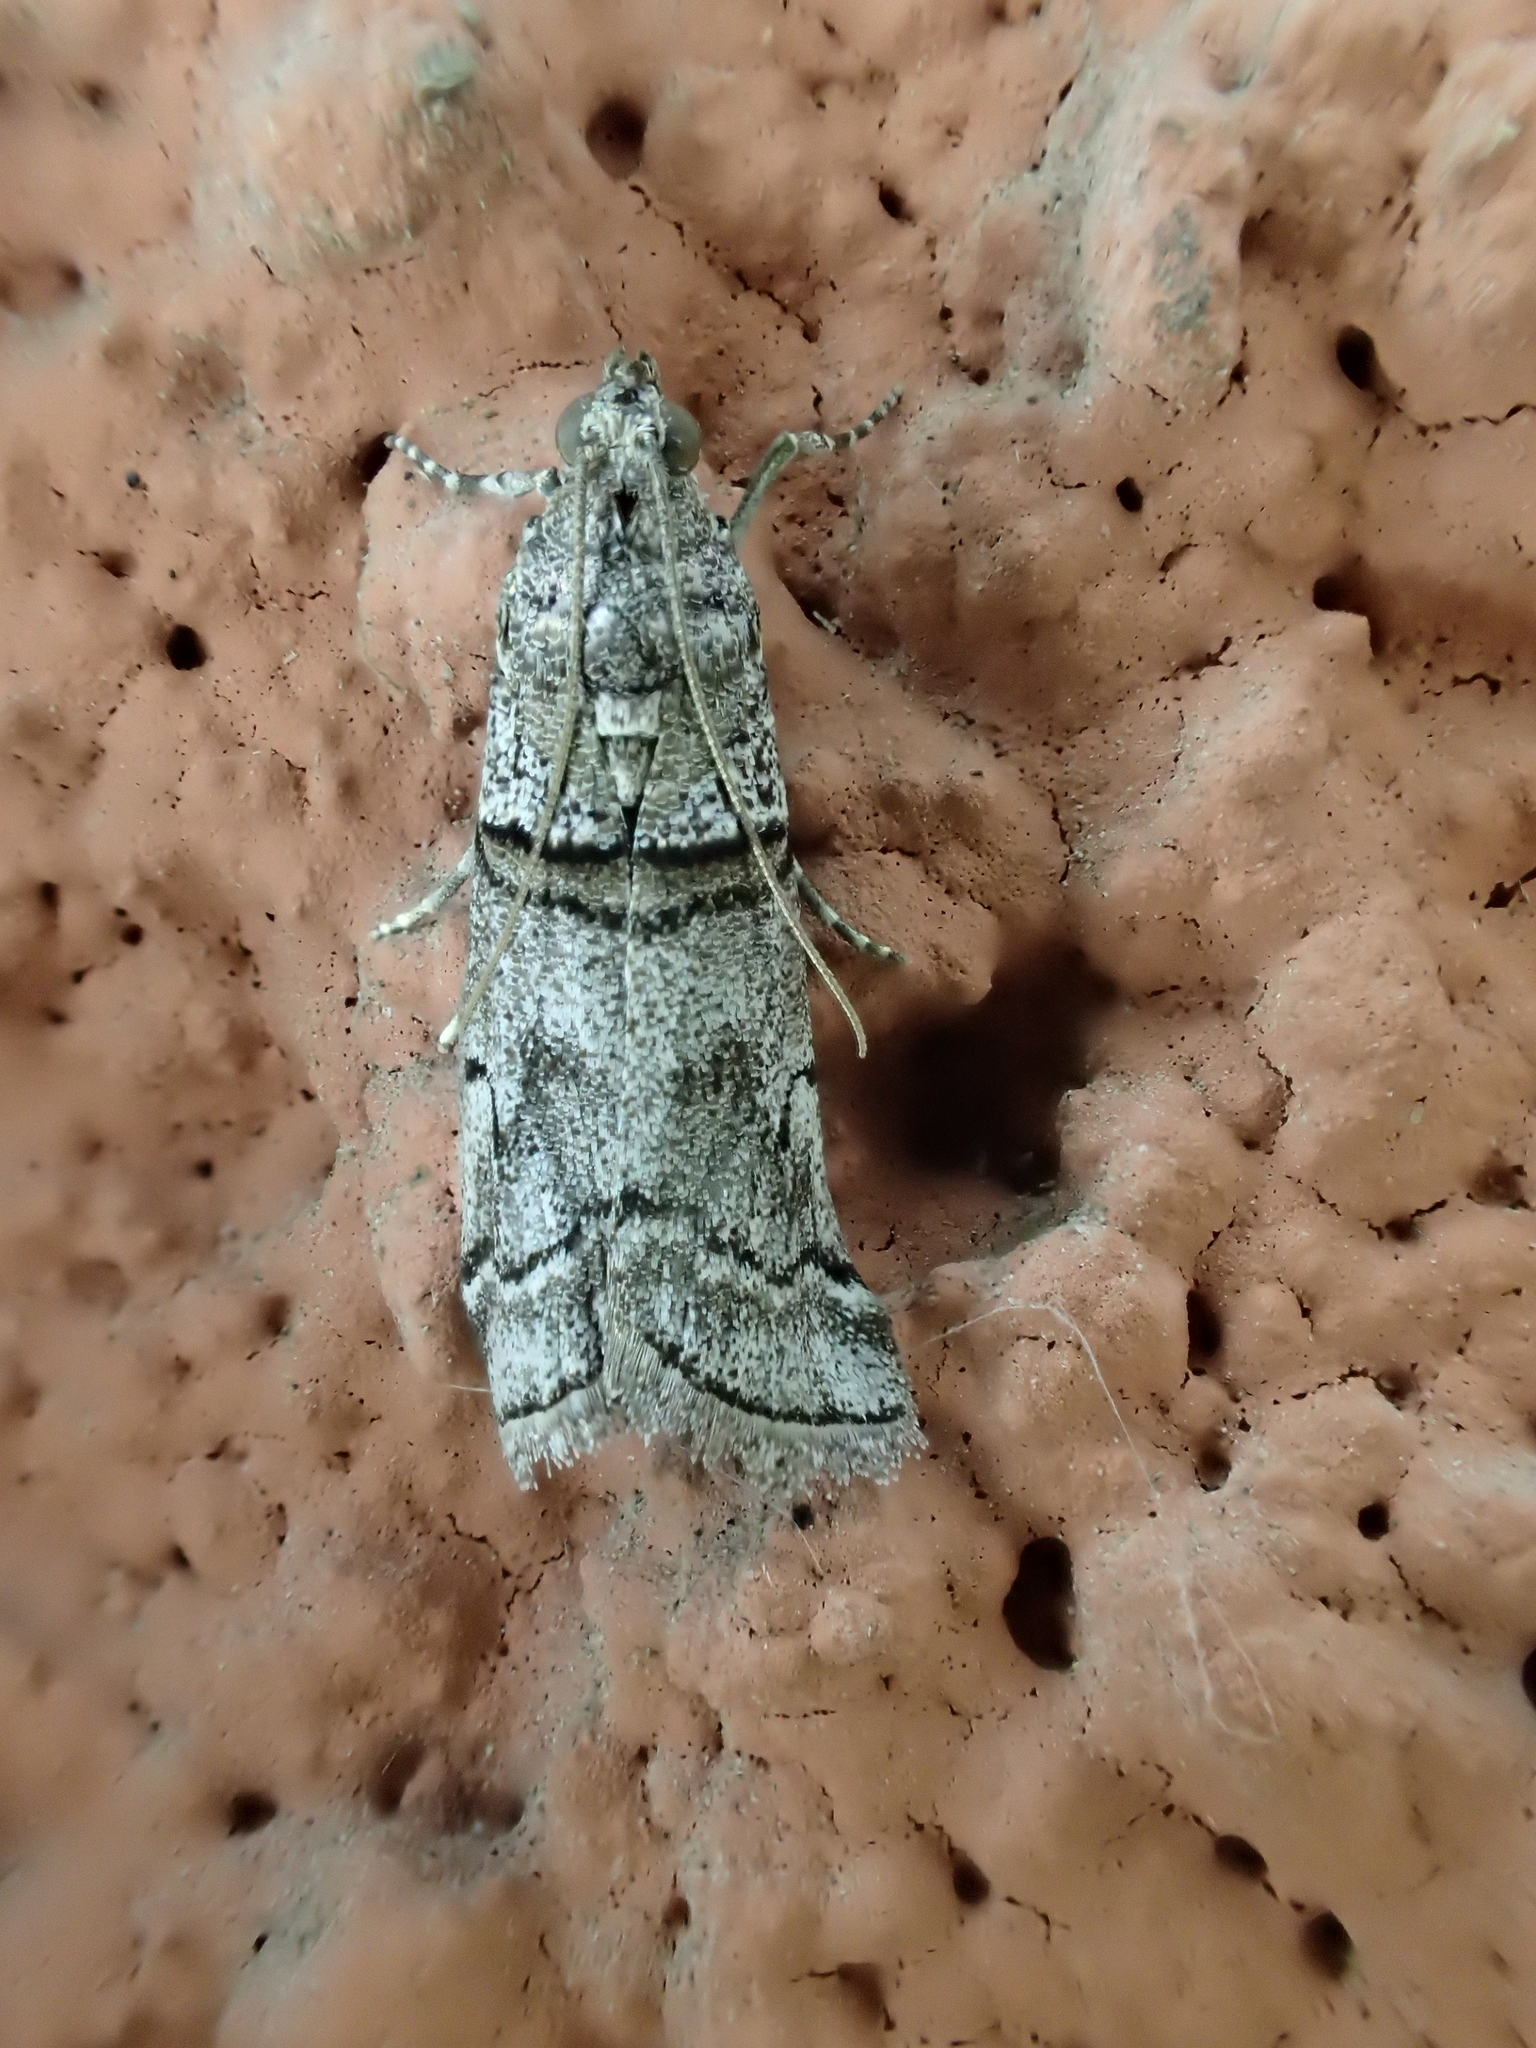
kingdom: Animalia
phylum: Arthropoda
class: Insecta
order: Lepidoptera
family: Pyralidae
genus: Acrobasis
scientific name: Acrobasis romanella
